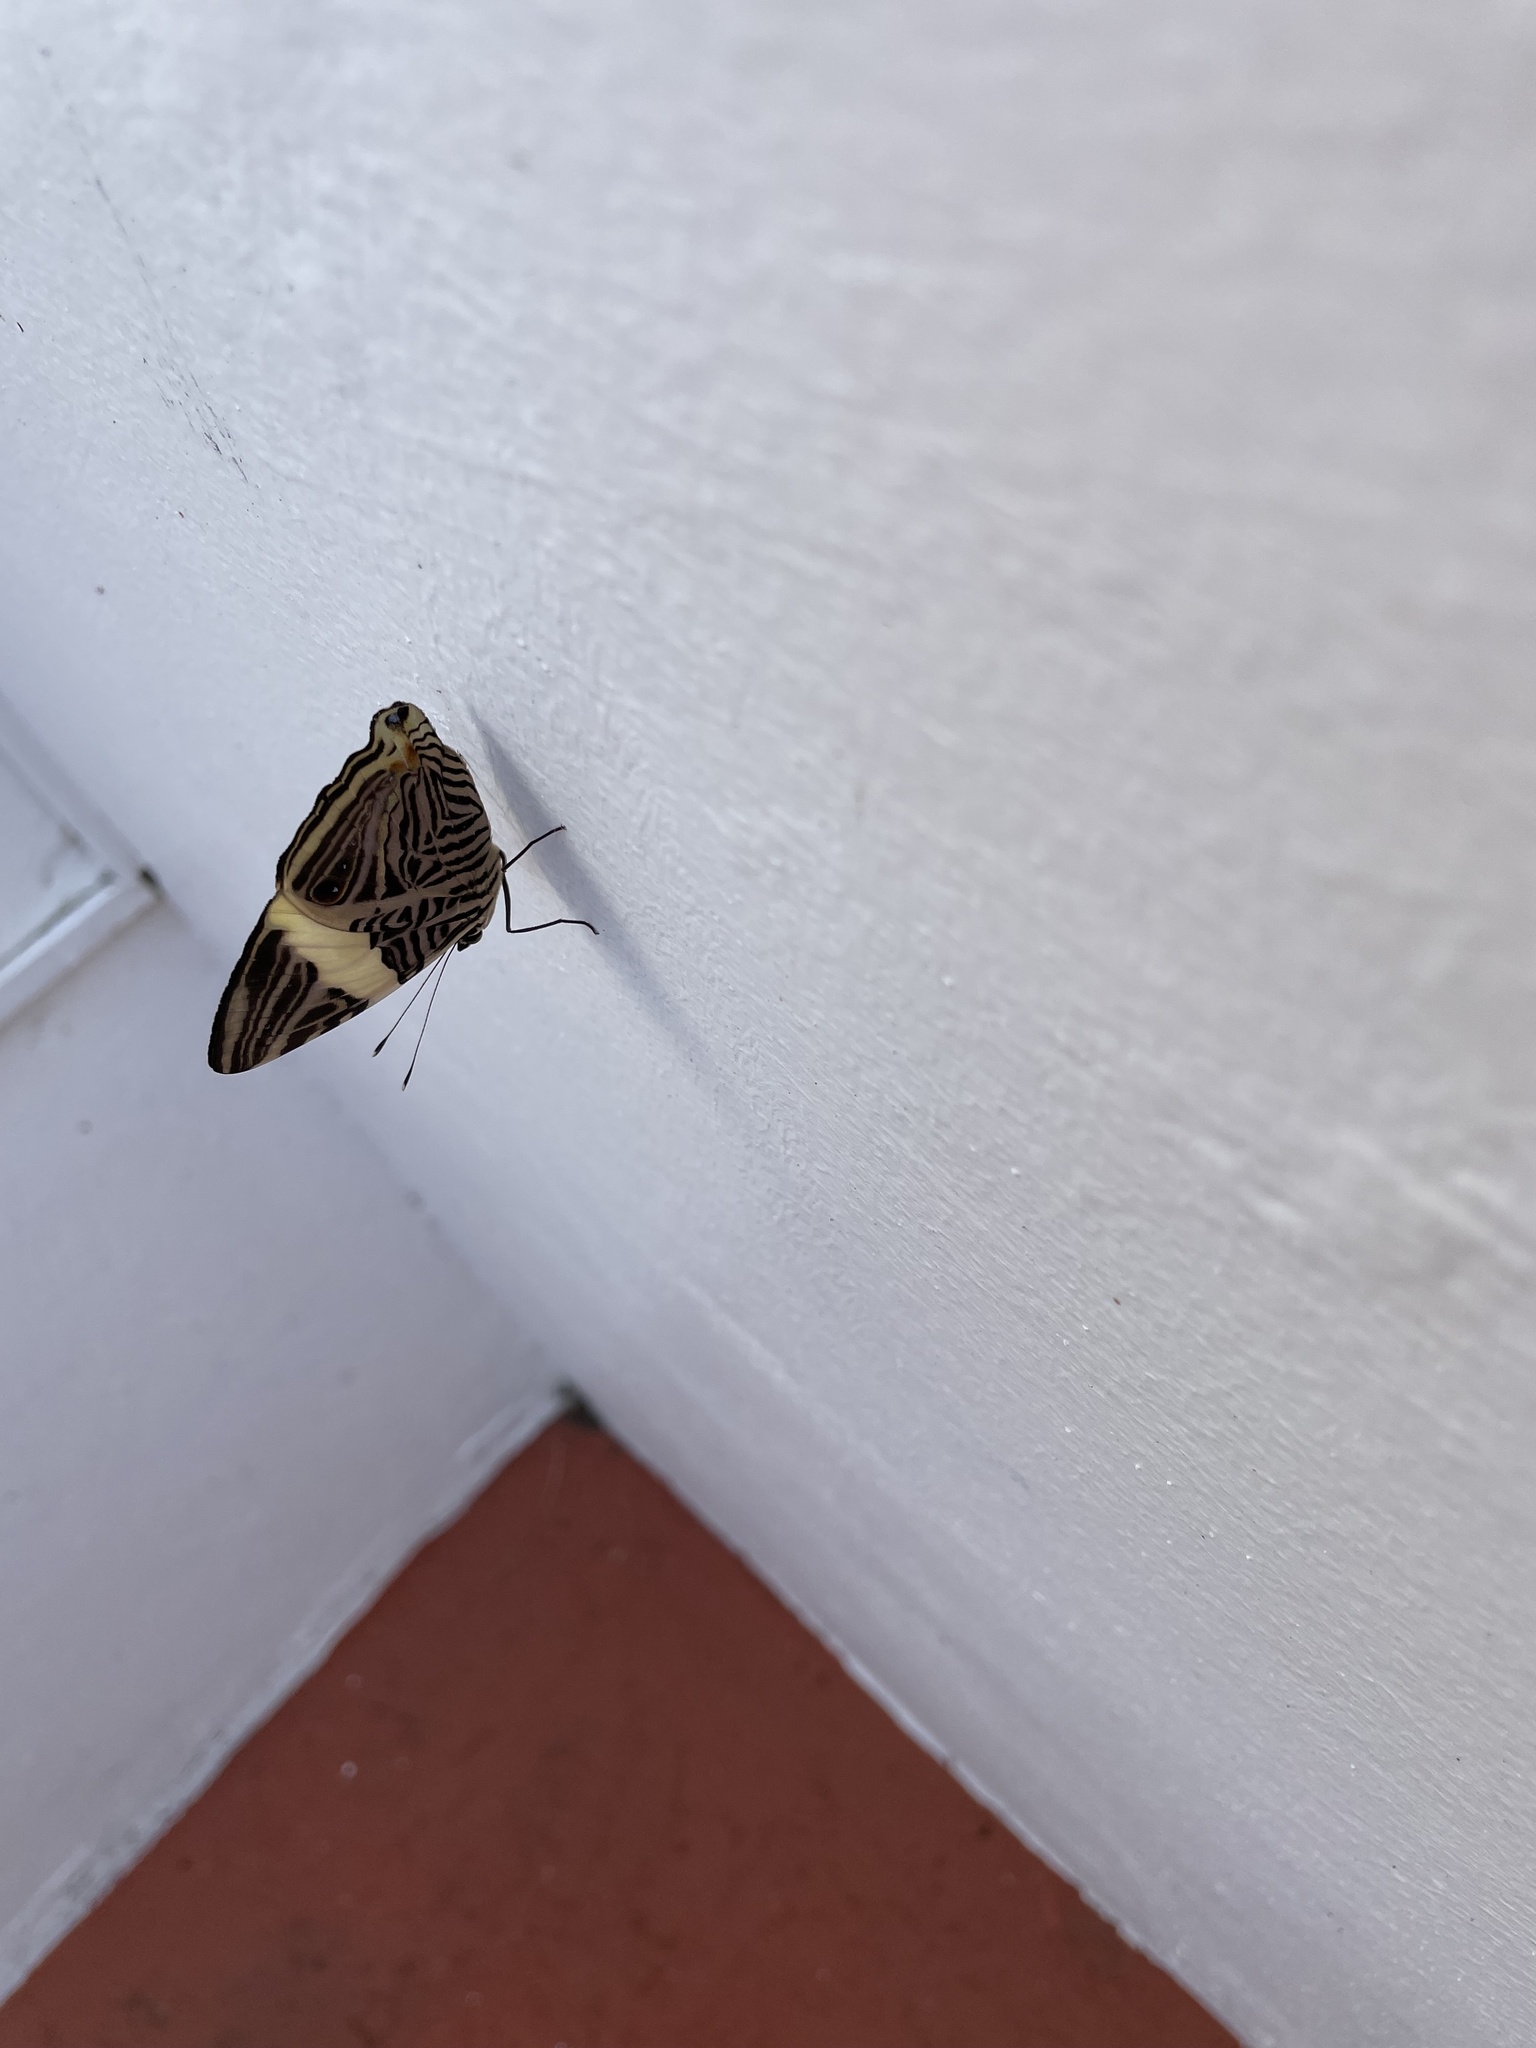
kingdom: Animalia
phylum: Arthropoda
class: Insecta
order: Lepidoptera
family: Nymphalidae
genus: Colobura
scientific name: Colobura dirce
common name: Dirce beauty
